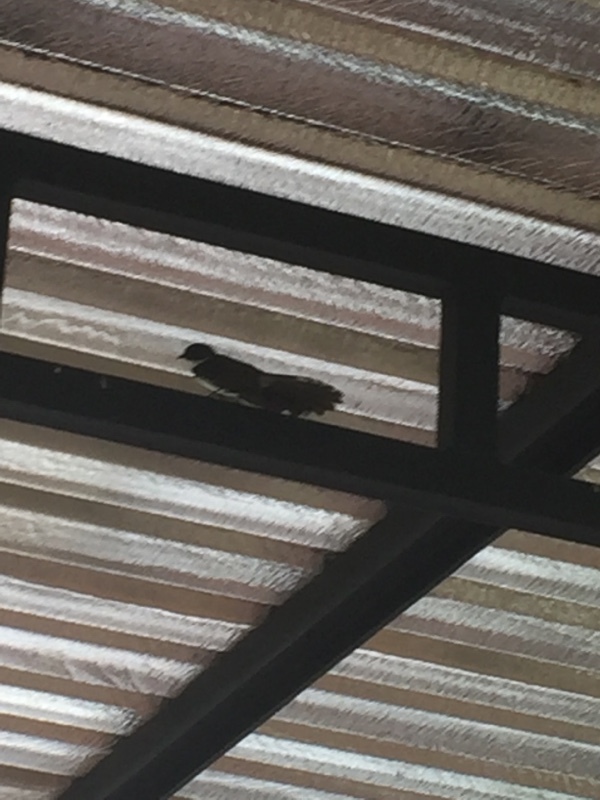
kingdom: Animalia
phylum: Chordata
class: Aves
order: Passeriformes
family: Rhipiduridae
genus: Rhipidura
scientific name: Rhipidura javanica
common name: Pied fantail
